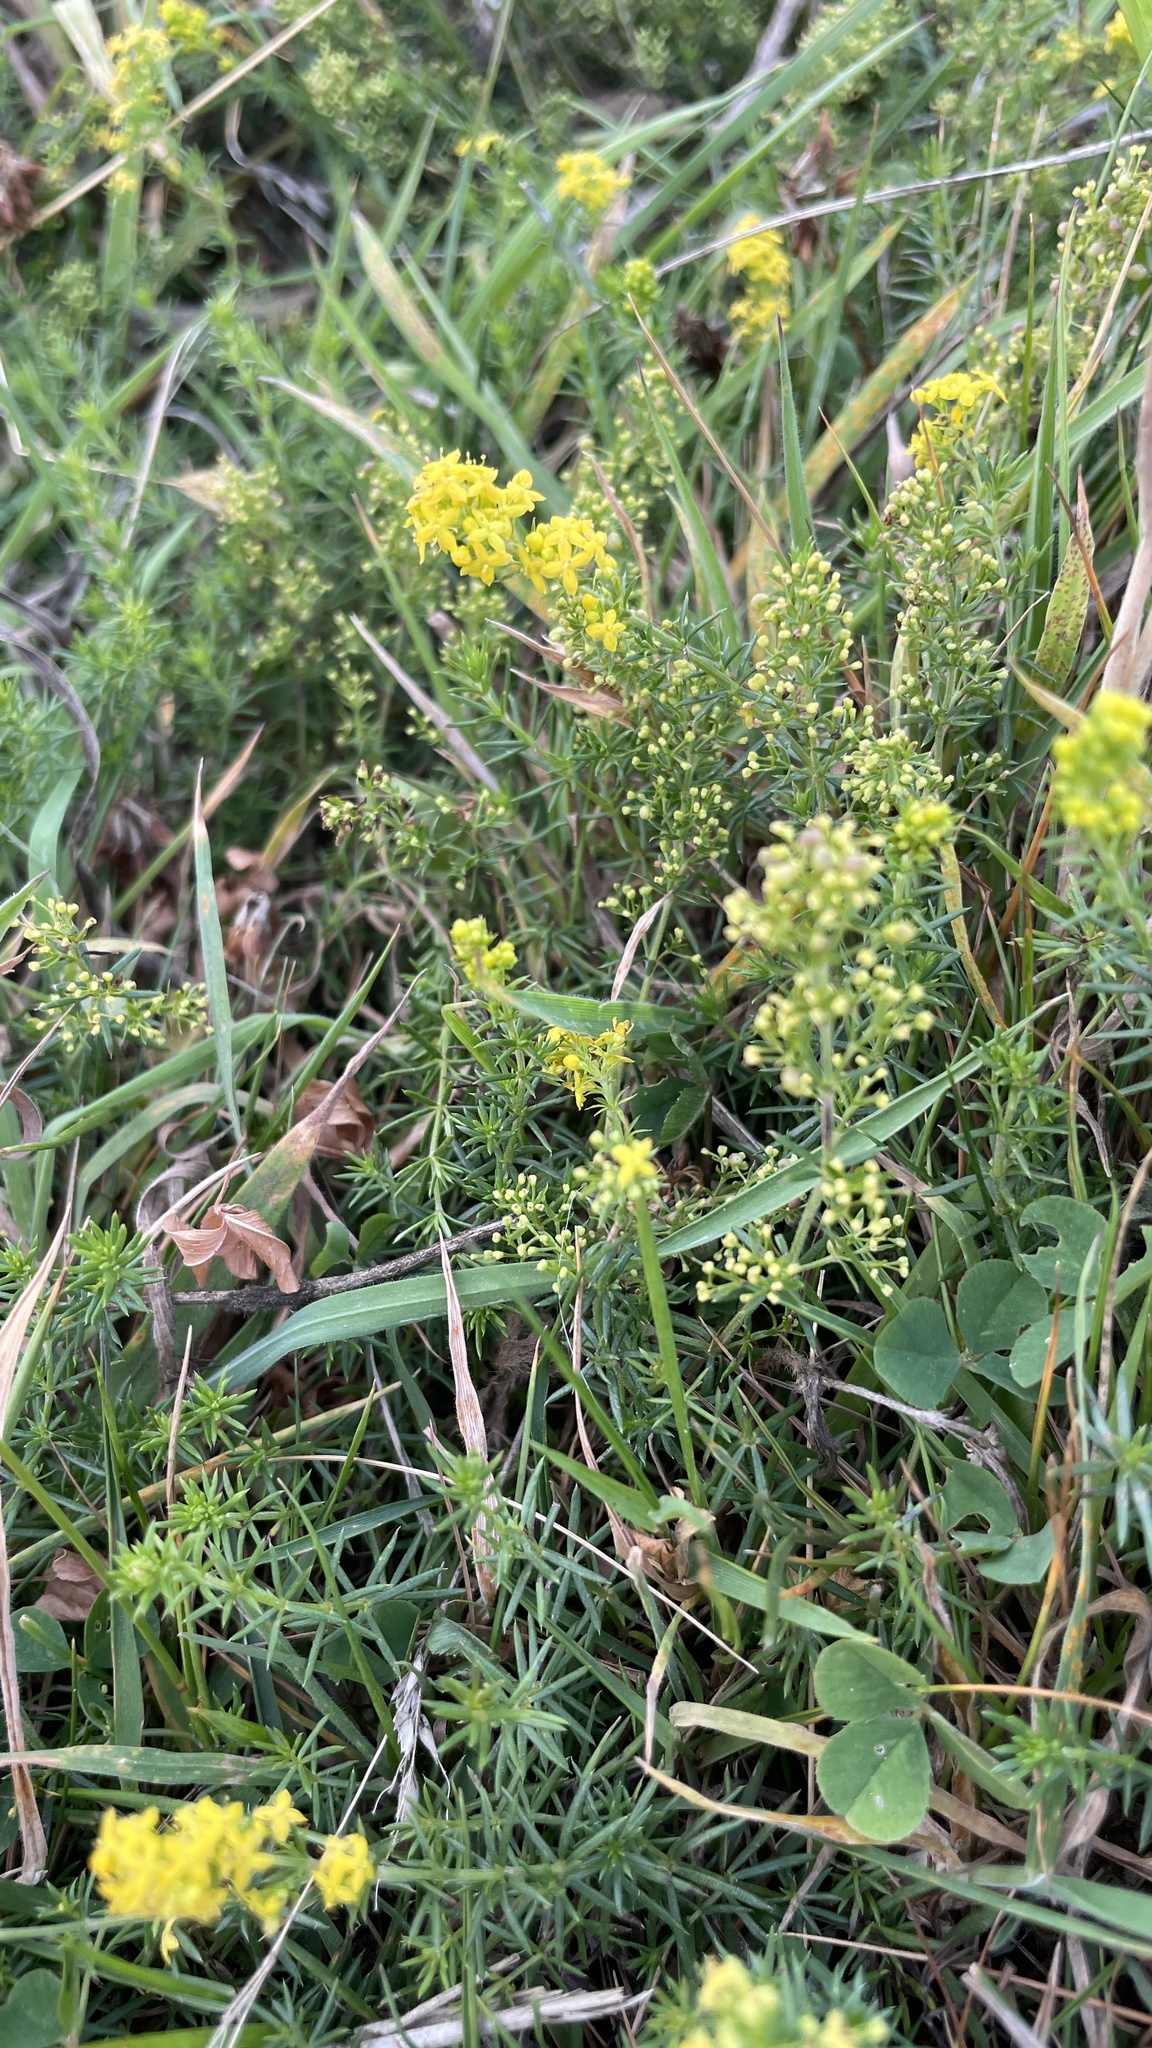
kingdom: Plantae
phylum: Tracheophyta
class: Magnoliopsida
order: Gentianales
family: Rubiaceae
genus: Galium
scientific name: Galium verum
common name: Lady's bedstraw
